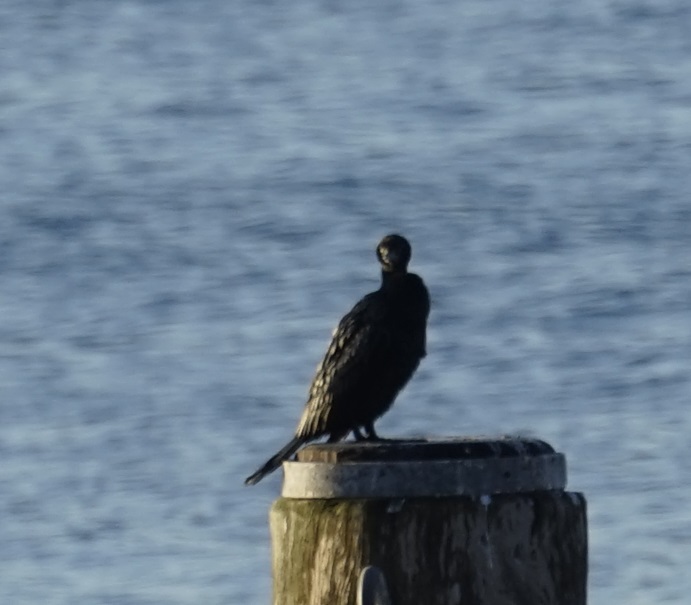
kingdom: Animalia
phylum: Chordata
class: Aves
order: Suliformes
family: Phalacrocoracidae
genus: Phalacrocorax
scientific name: Phalacrocorax sulcirostris
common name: Little black cormorant
